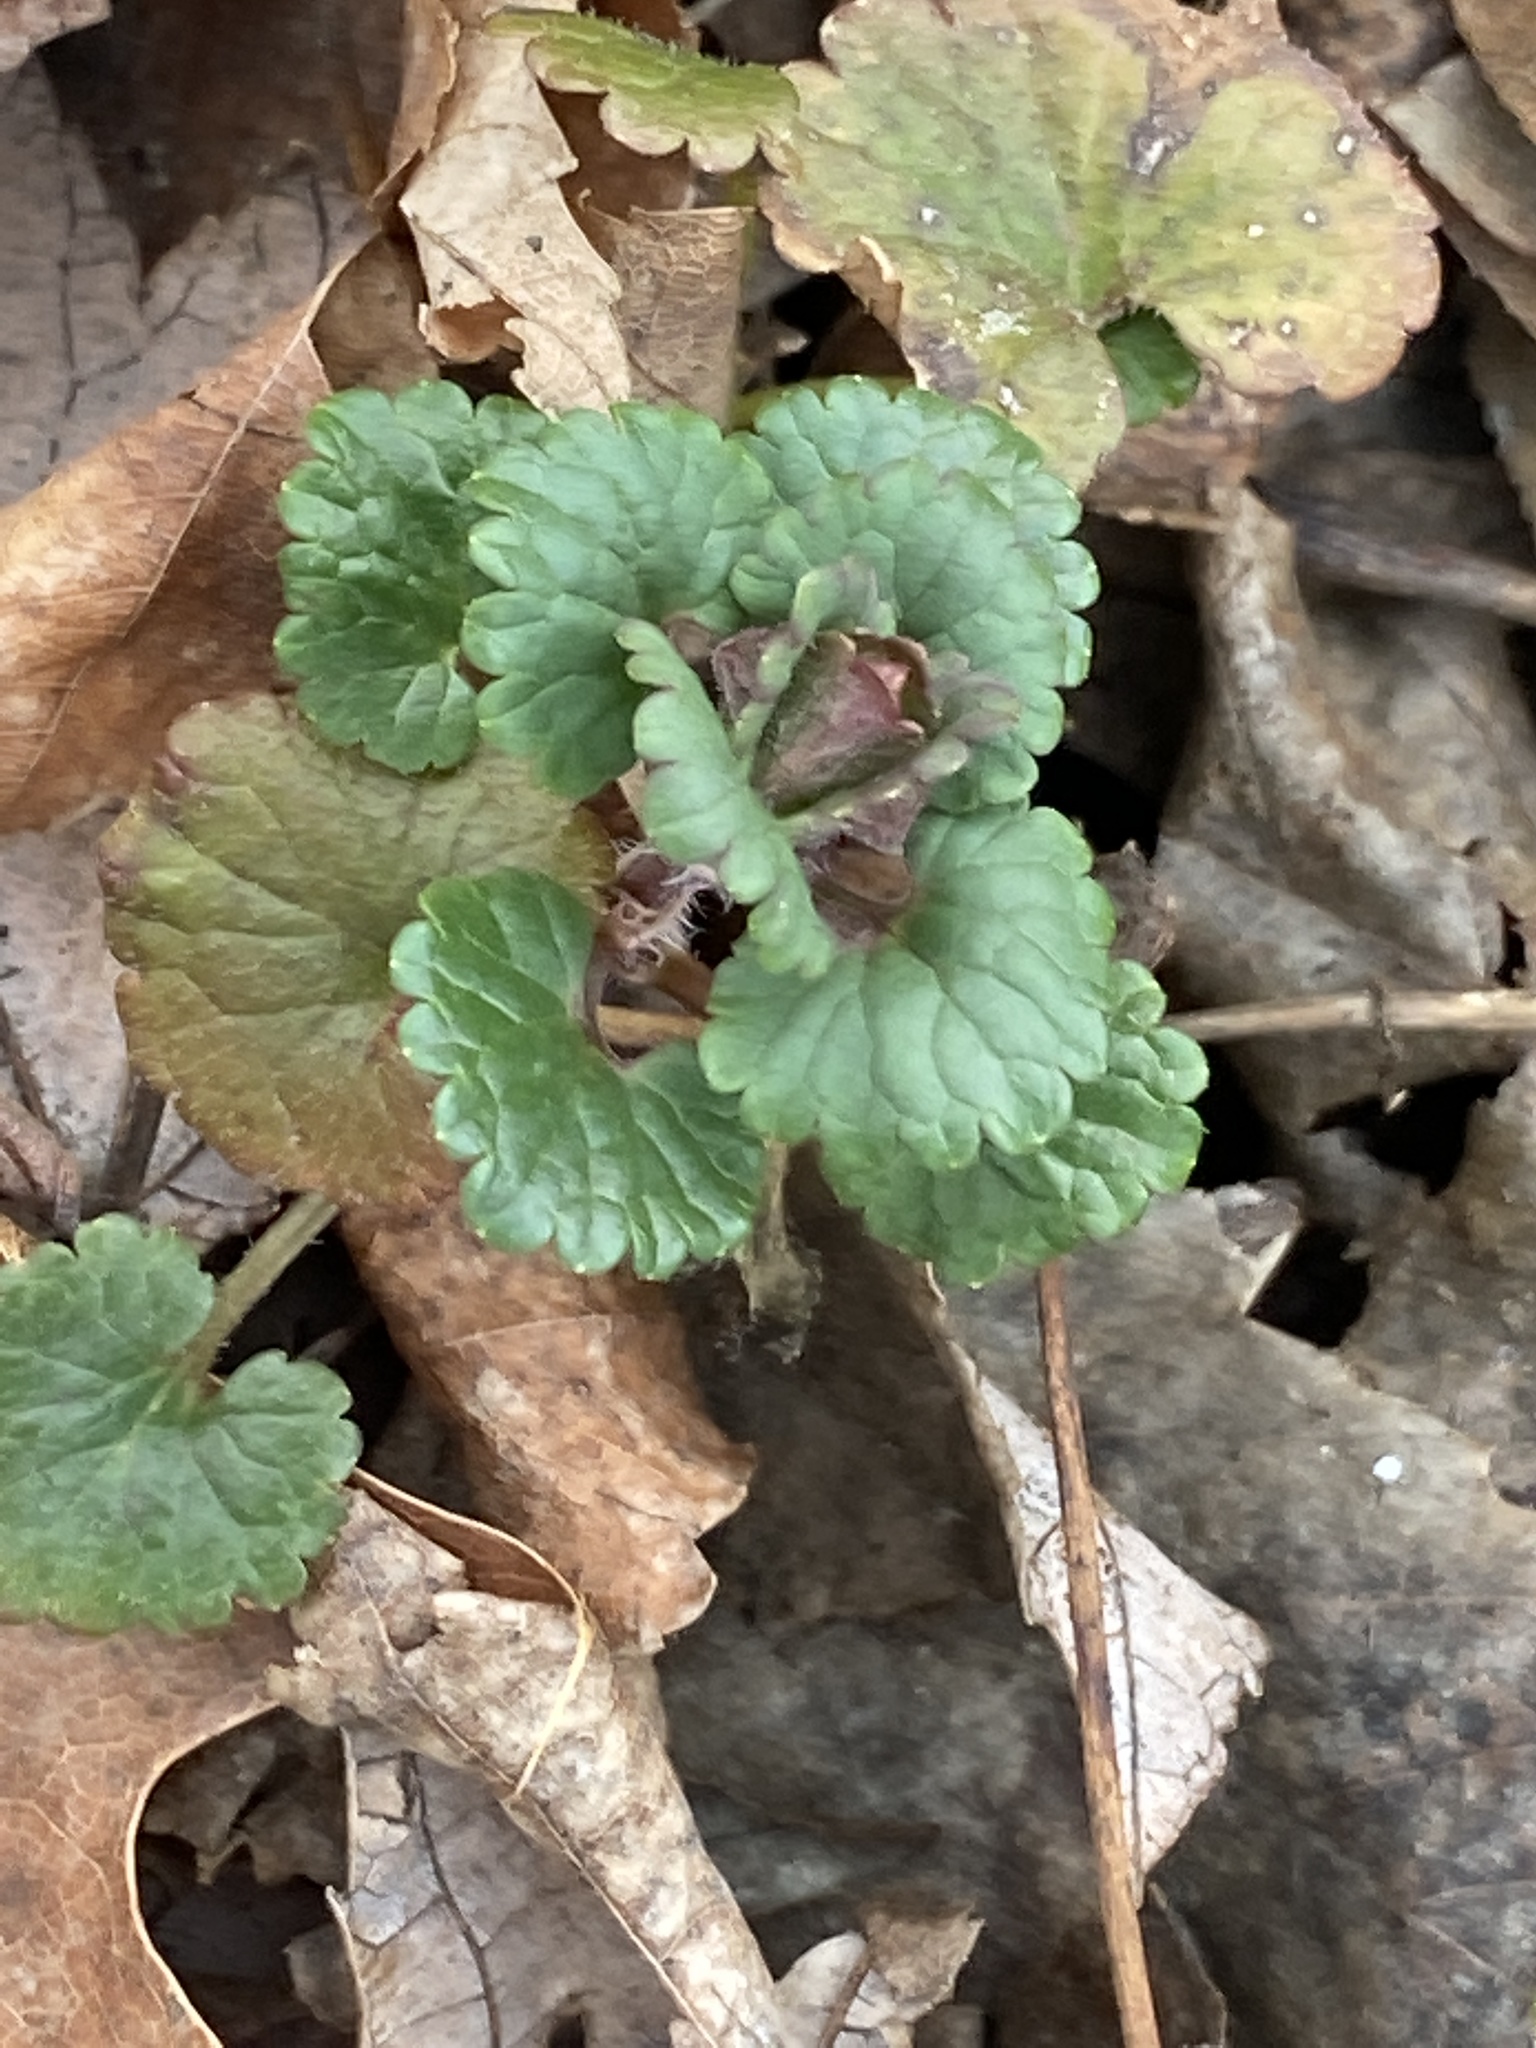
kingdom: Plantae
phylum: Tracheophyta
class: Magnoliopsida
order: Lamiales
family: Lamiaceae
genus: Glechoma
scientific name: Glechoma hederacea
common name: Ground ivy
